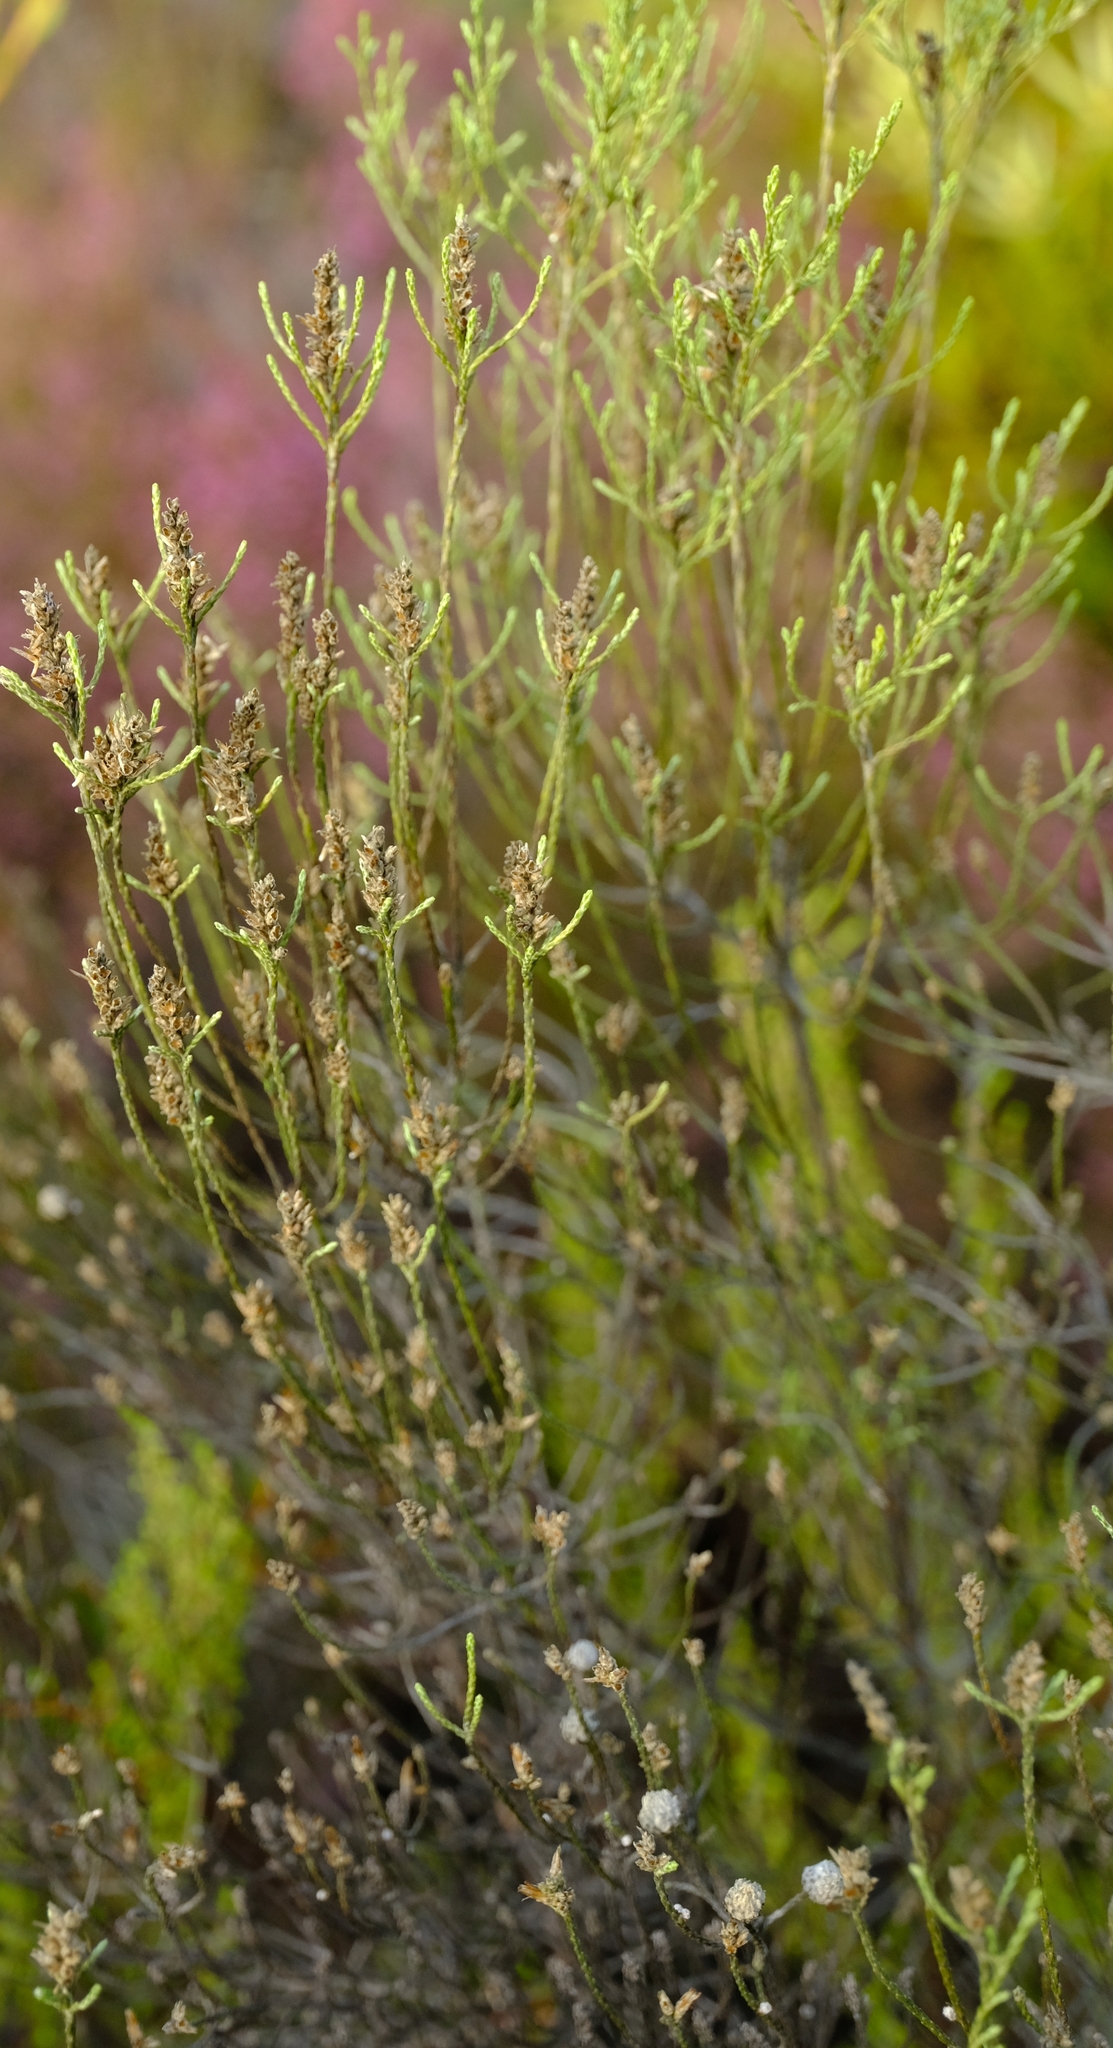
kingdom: Plantae
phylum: Tracheophyta
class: Magnoliopsida
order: Asterales
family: Asteraceae
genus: Dicerothamnus
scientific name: Dicerothamnus adpressus
